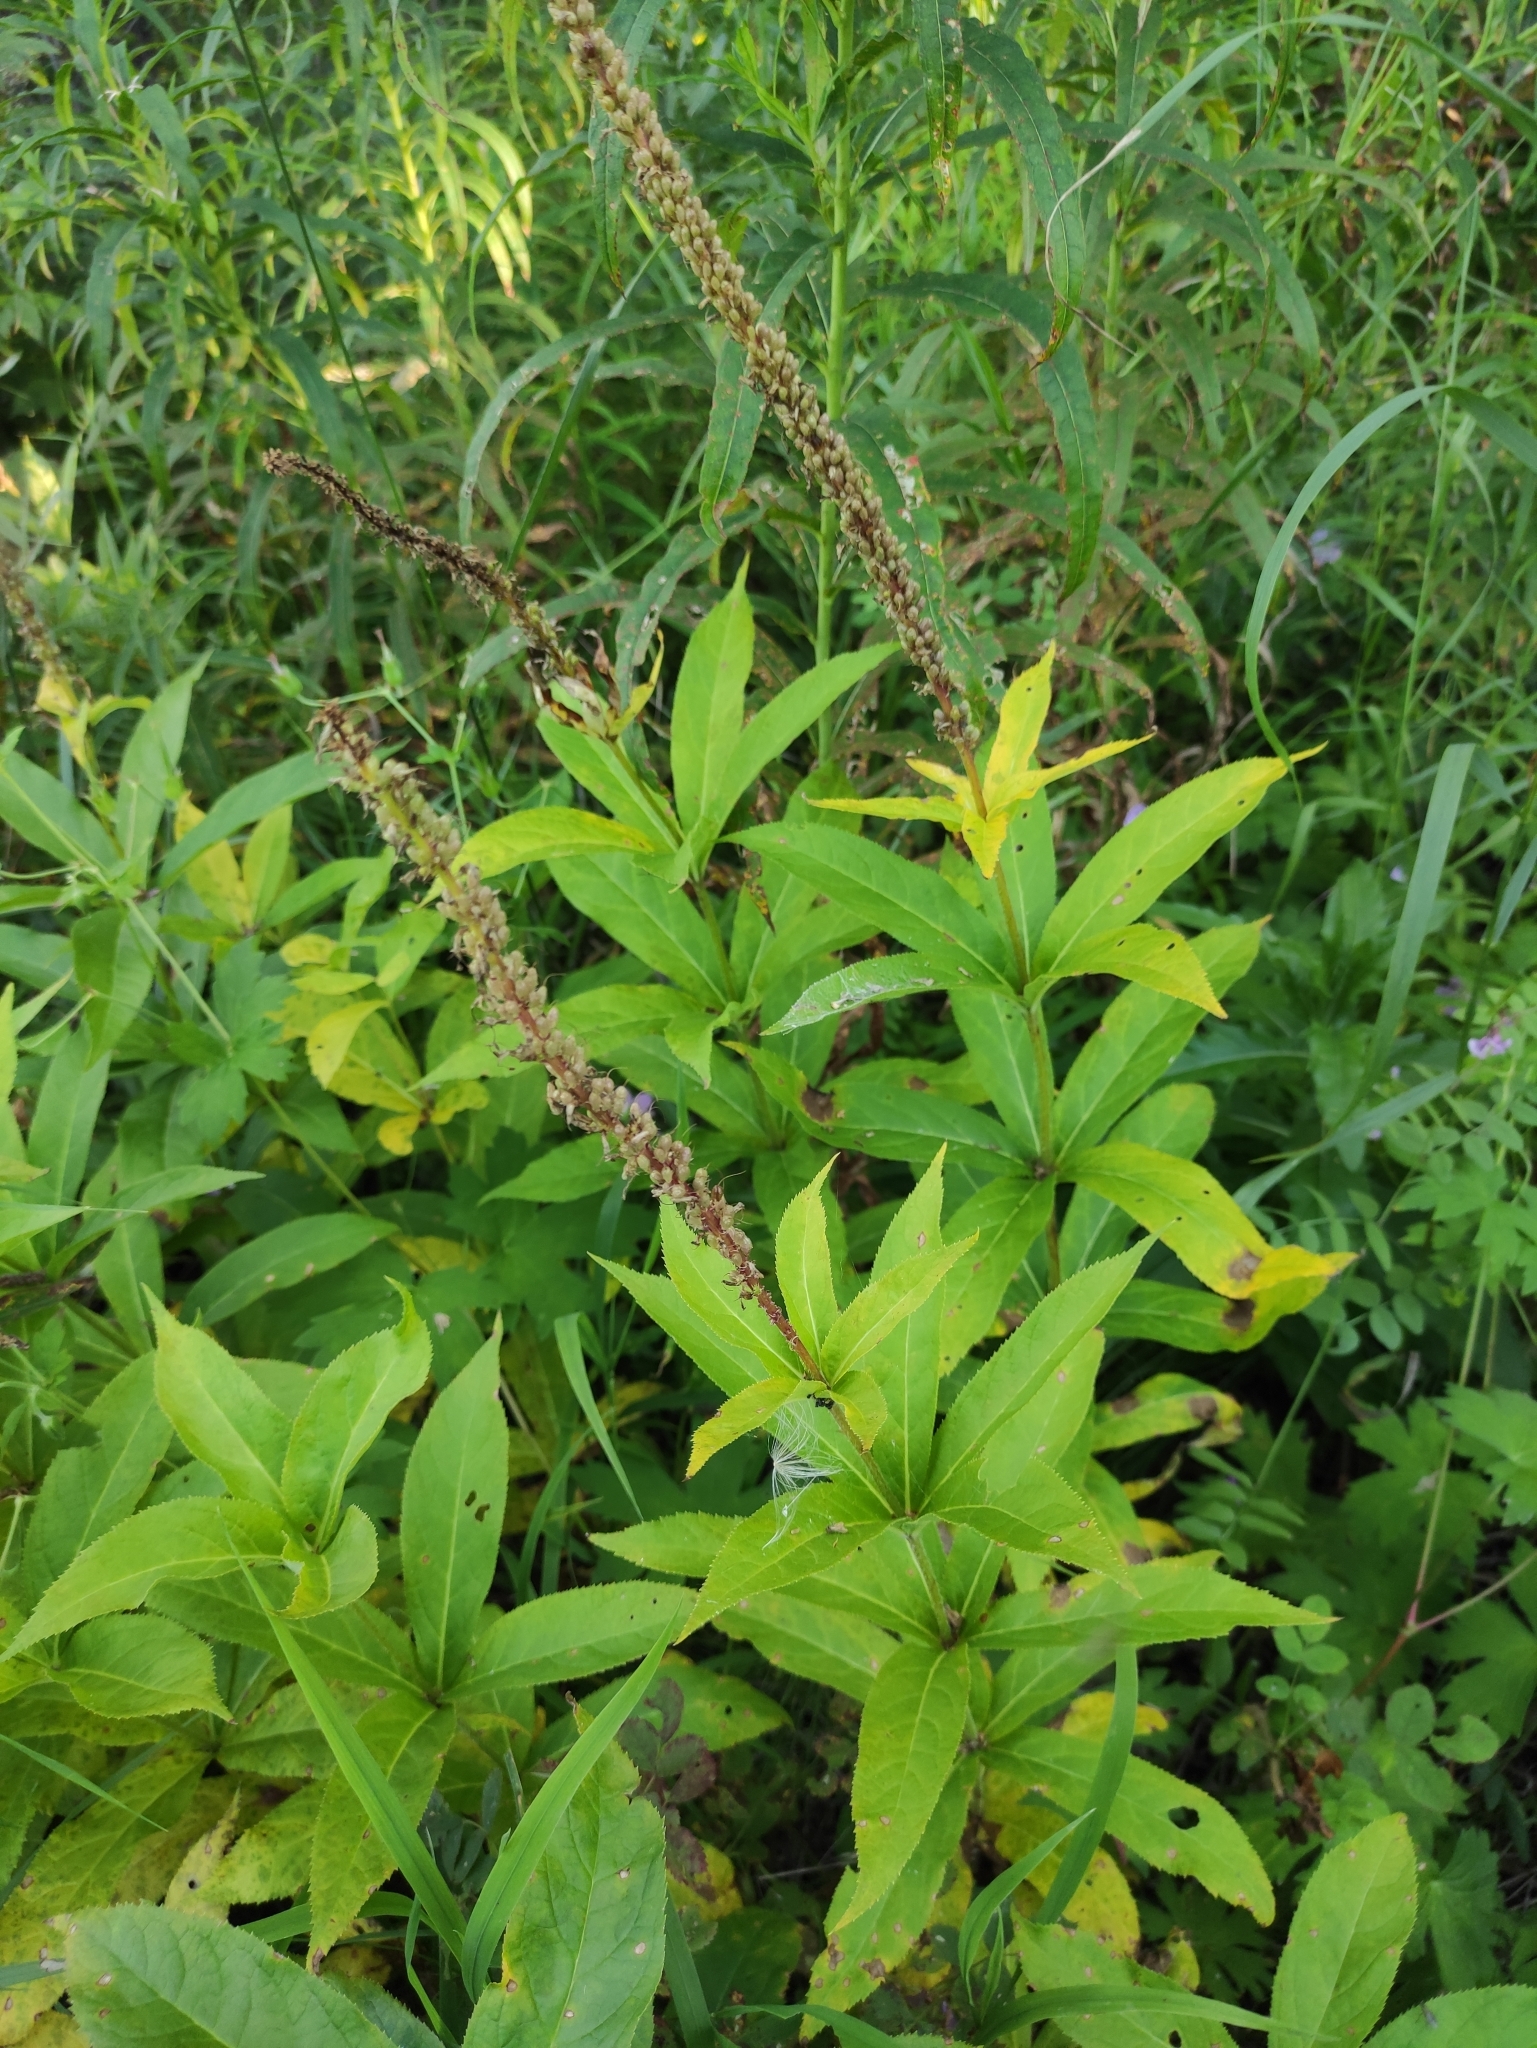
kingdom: Plantae
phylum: Tracheophyta
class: Magnoliopsida
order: Lamiales
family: Plantaginaceae
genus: Veronicastrum
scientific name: Veronicastrum sibiricum
